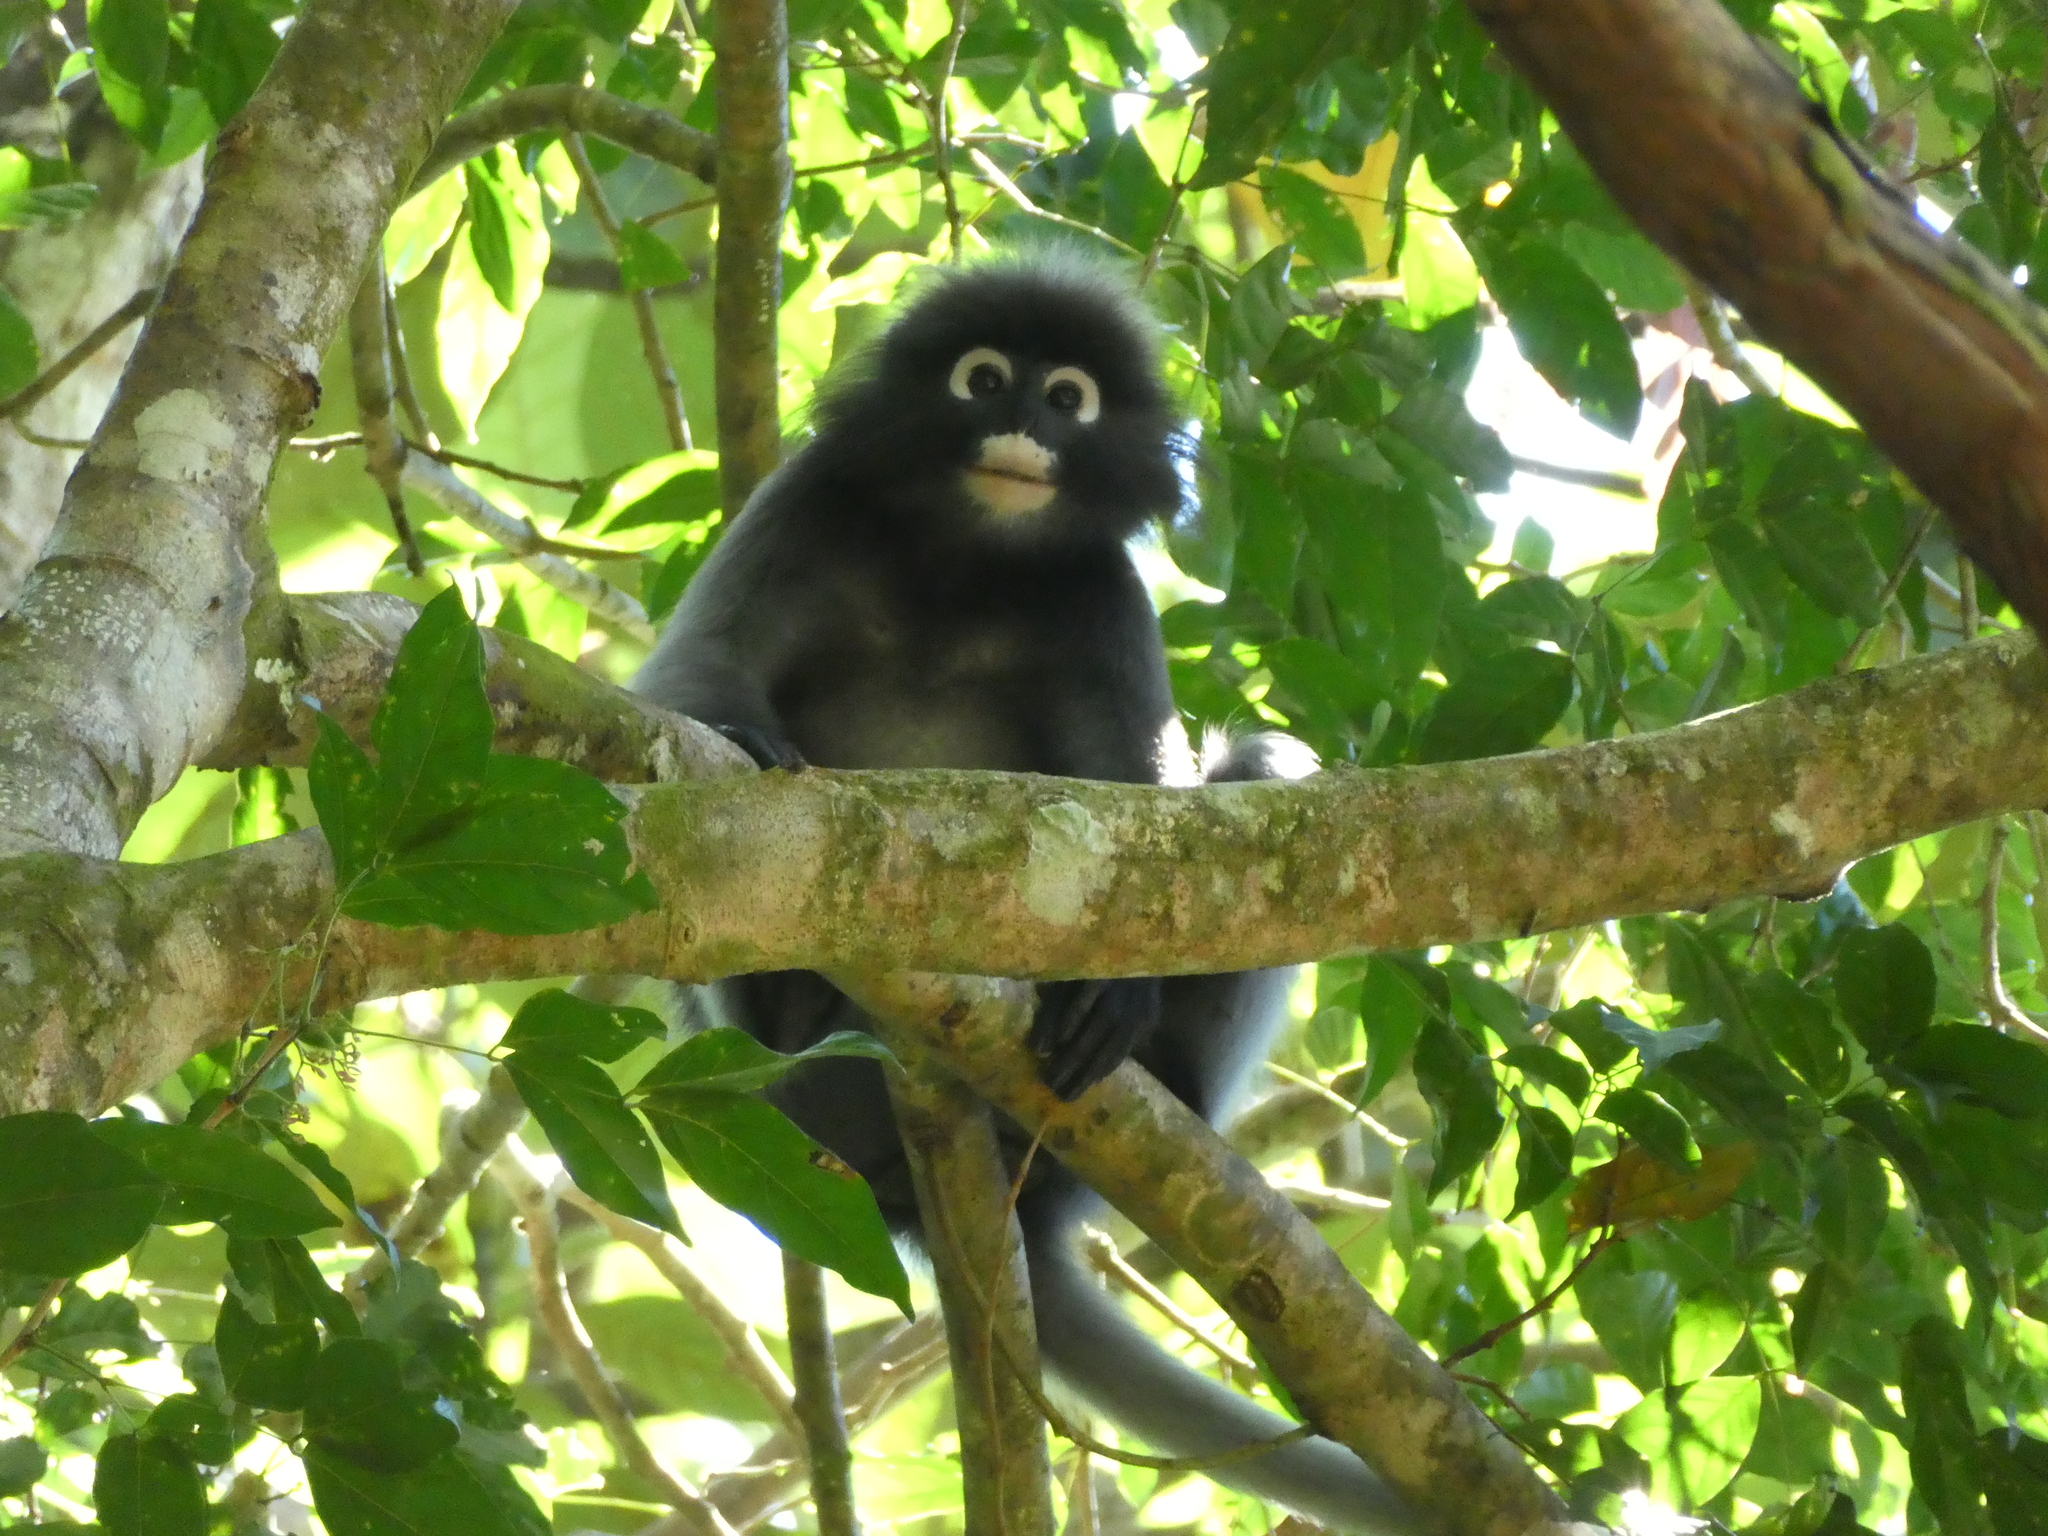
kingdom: Animalia
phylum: Chordata
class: Mammalia
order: Primates
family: Cercopithecidae
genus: Trachypithecus
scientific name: Trachypithecus obscurus
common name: Dusky leaf-monkey
